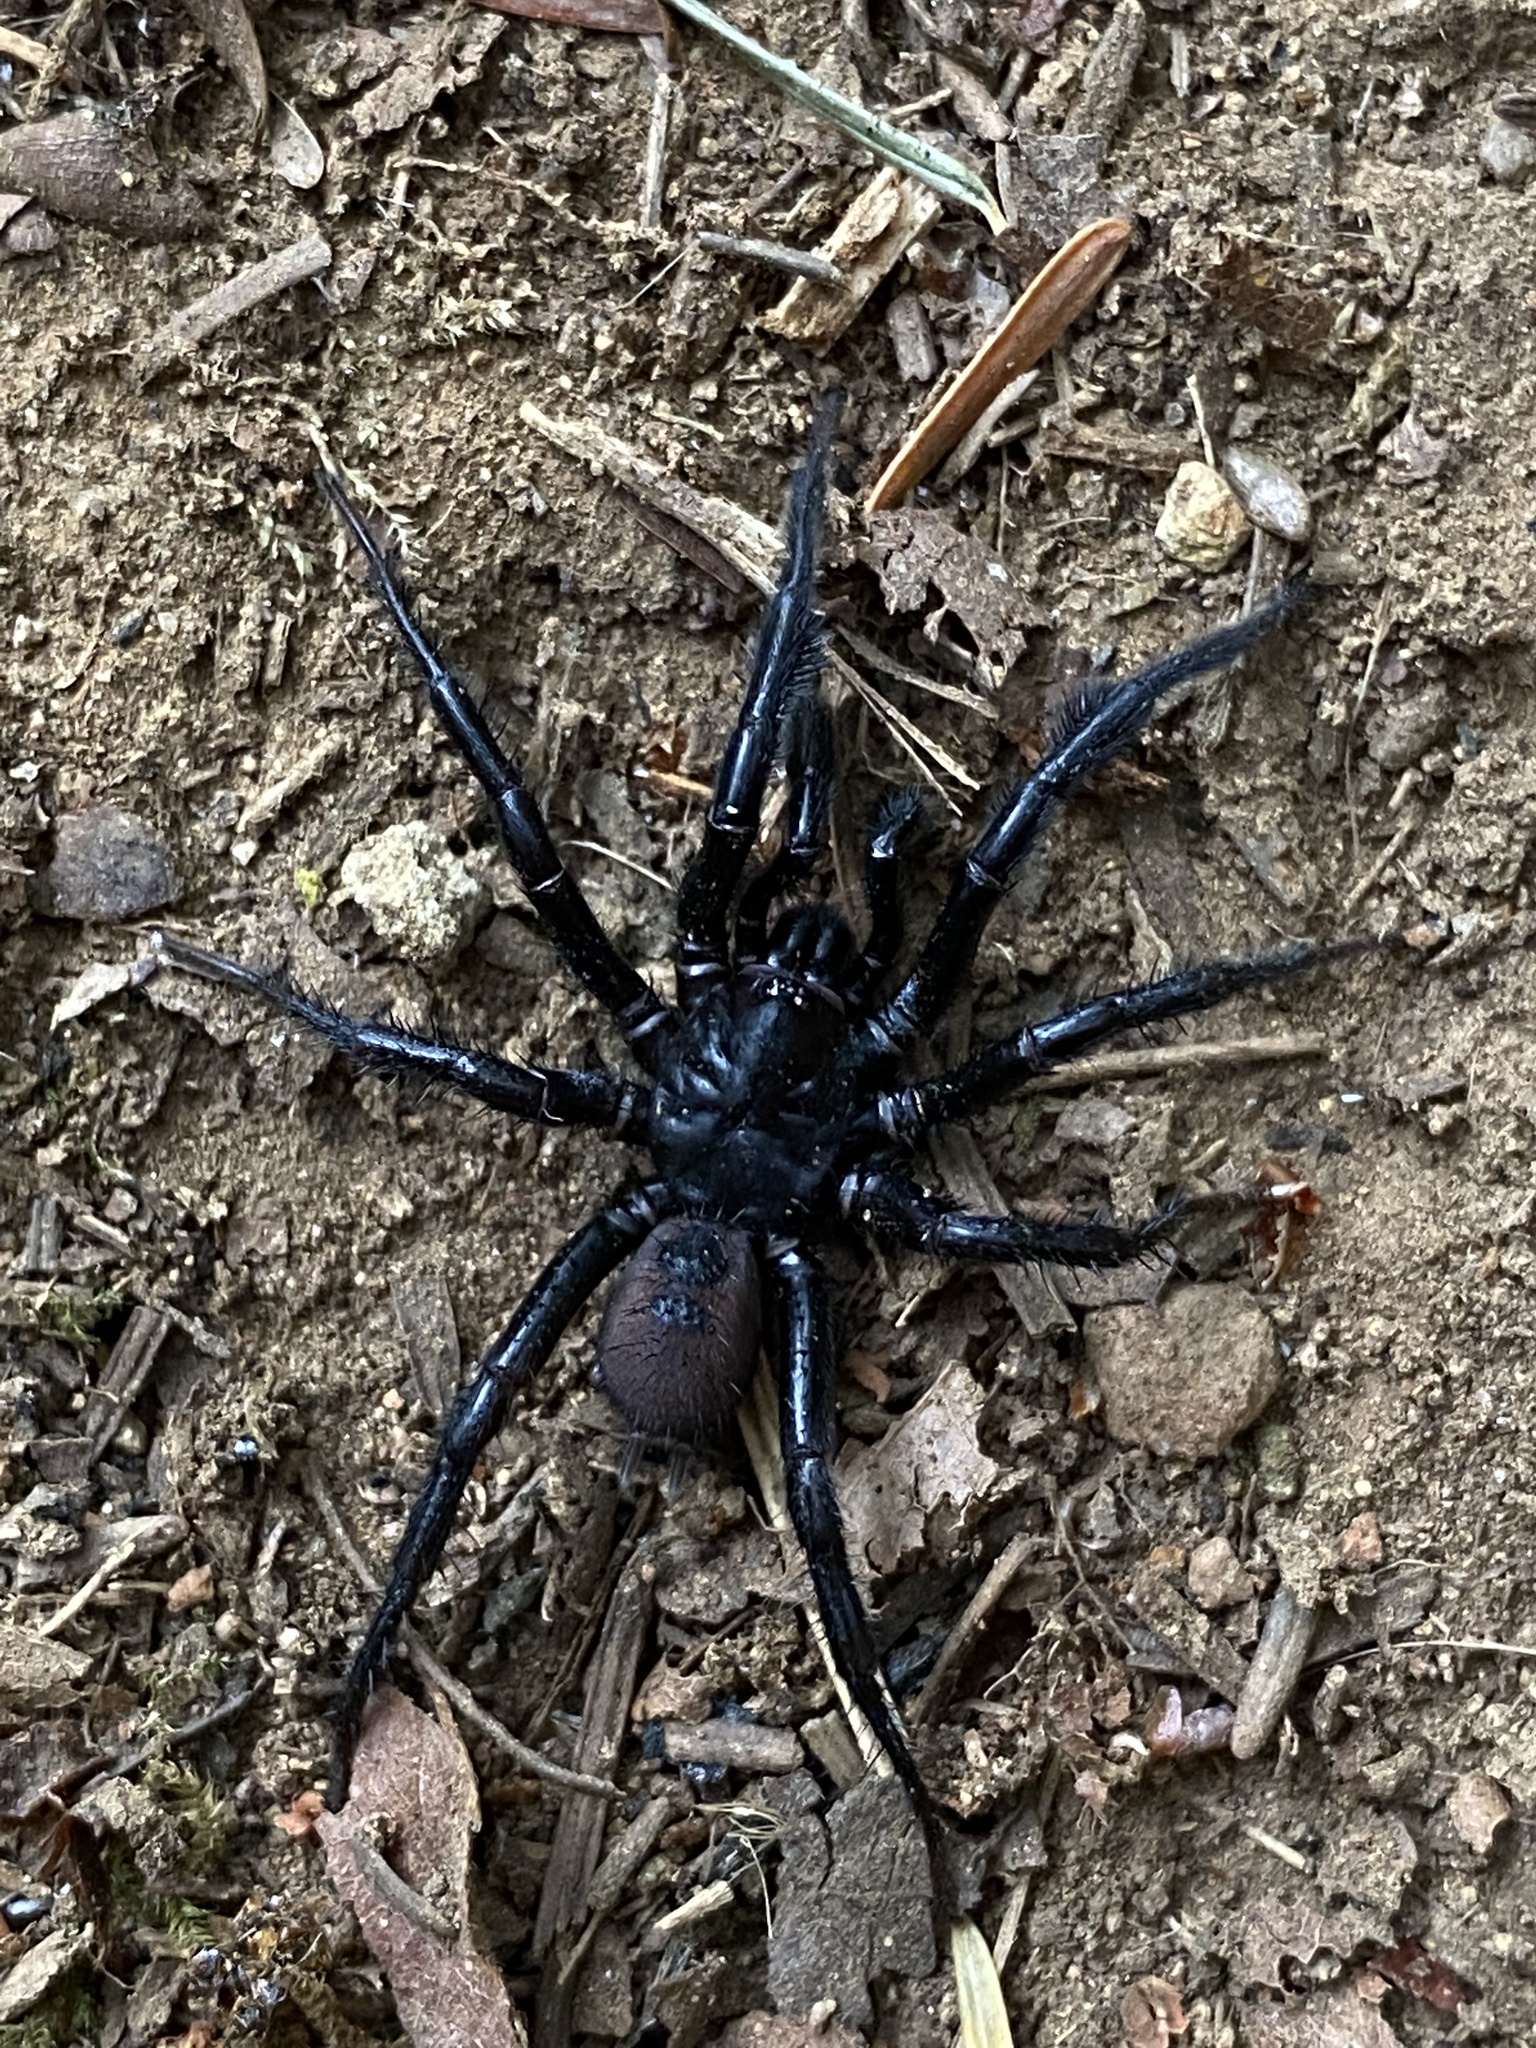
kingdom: Animalia
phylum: Arthropoda
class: Arachnida
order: Araneae
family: Antrodiaetidae
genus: Antrodiaetus
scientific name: Antrodiaetus pacificus
